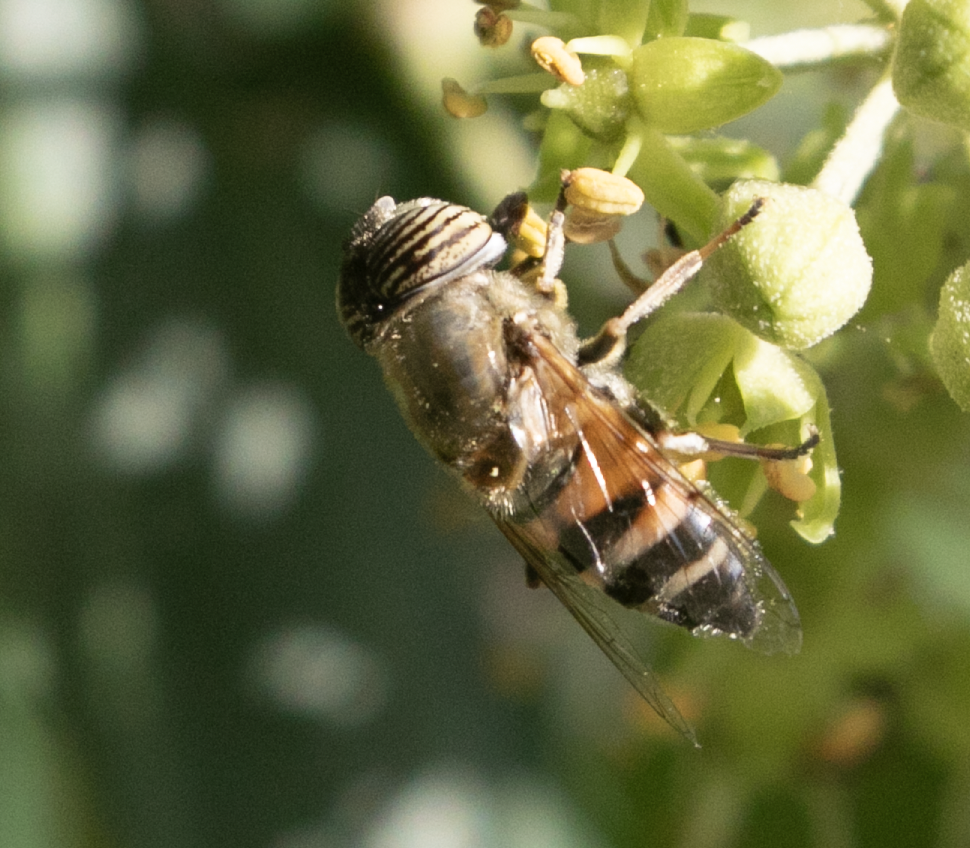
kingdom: Animalia
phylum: Arthropoda
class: Insecta
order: Diptera
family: Syrphidae
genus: Eristalinus
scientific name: Eristalinus taeniops
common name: Syrphid fly
